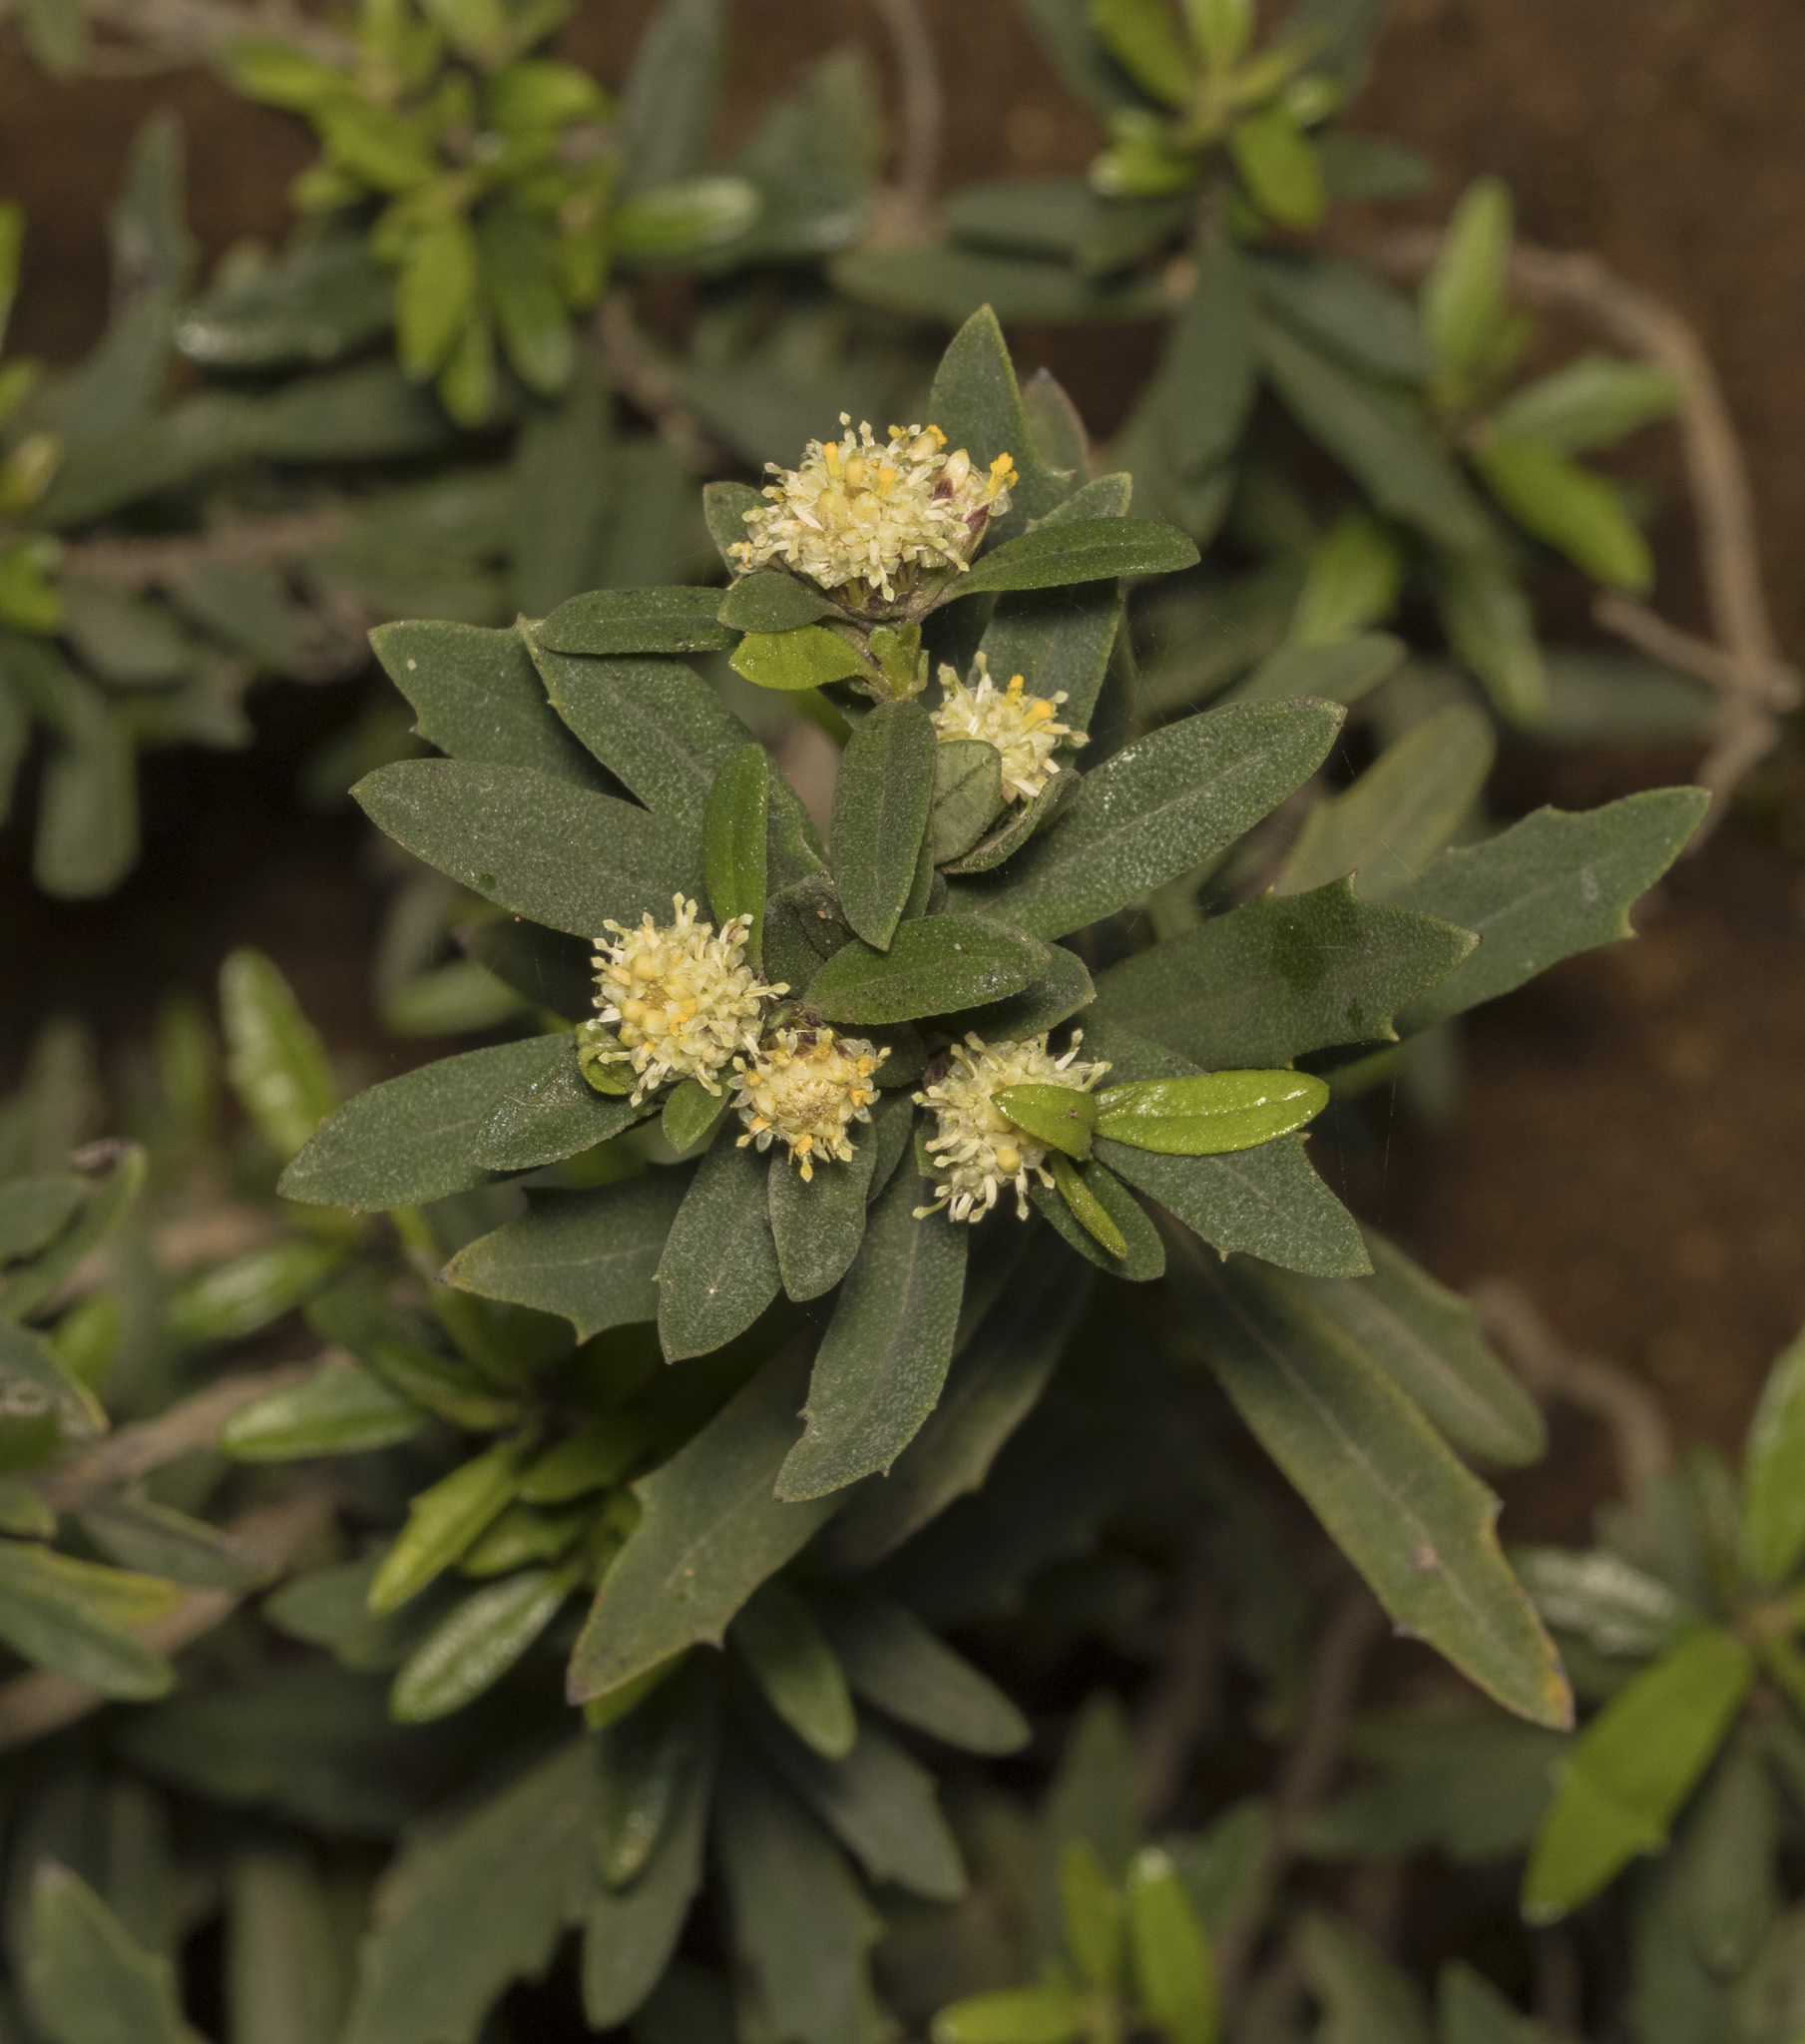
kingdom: Plantae
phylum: Tracheophyta
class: Magnoliopsida
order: Asterales
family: Asteraceae
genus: Baccharis
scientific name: Baccharis elaeoides
